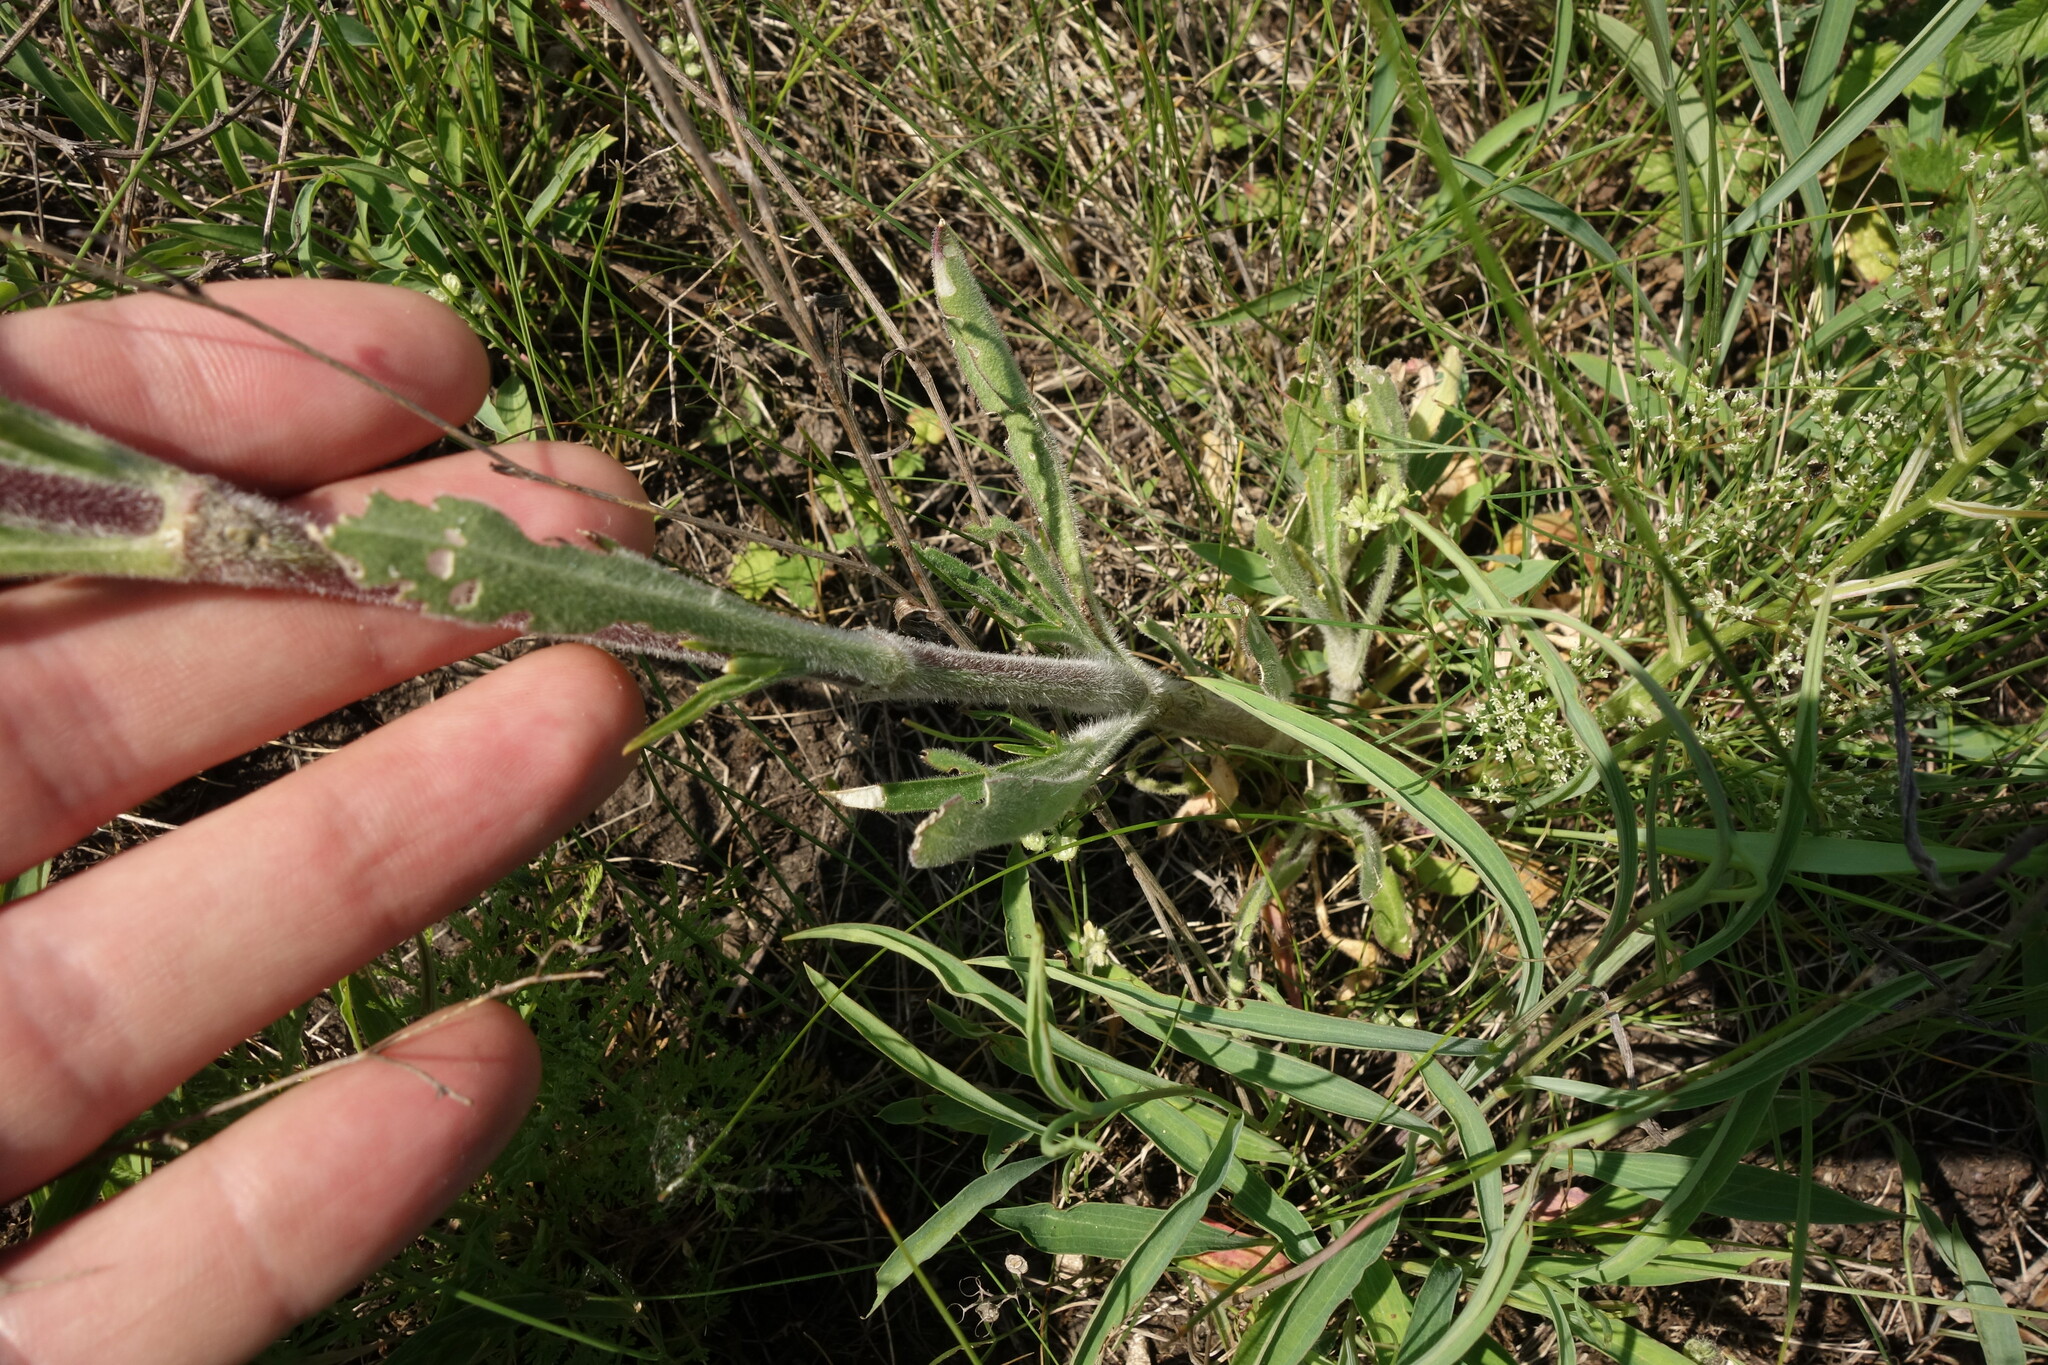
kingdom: Plantae
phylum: Tracheophyta
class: Magnoliopsida
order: Caryophyllales
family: Caryophyllaceae
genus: Silene
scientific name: Silene chersonensis
